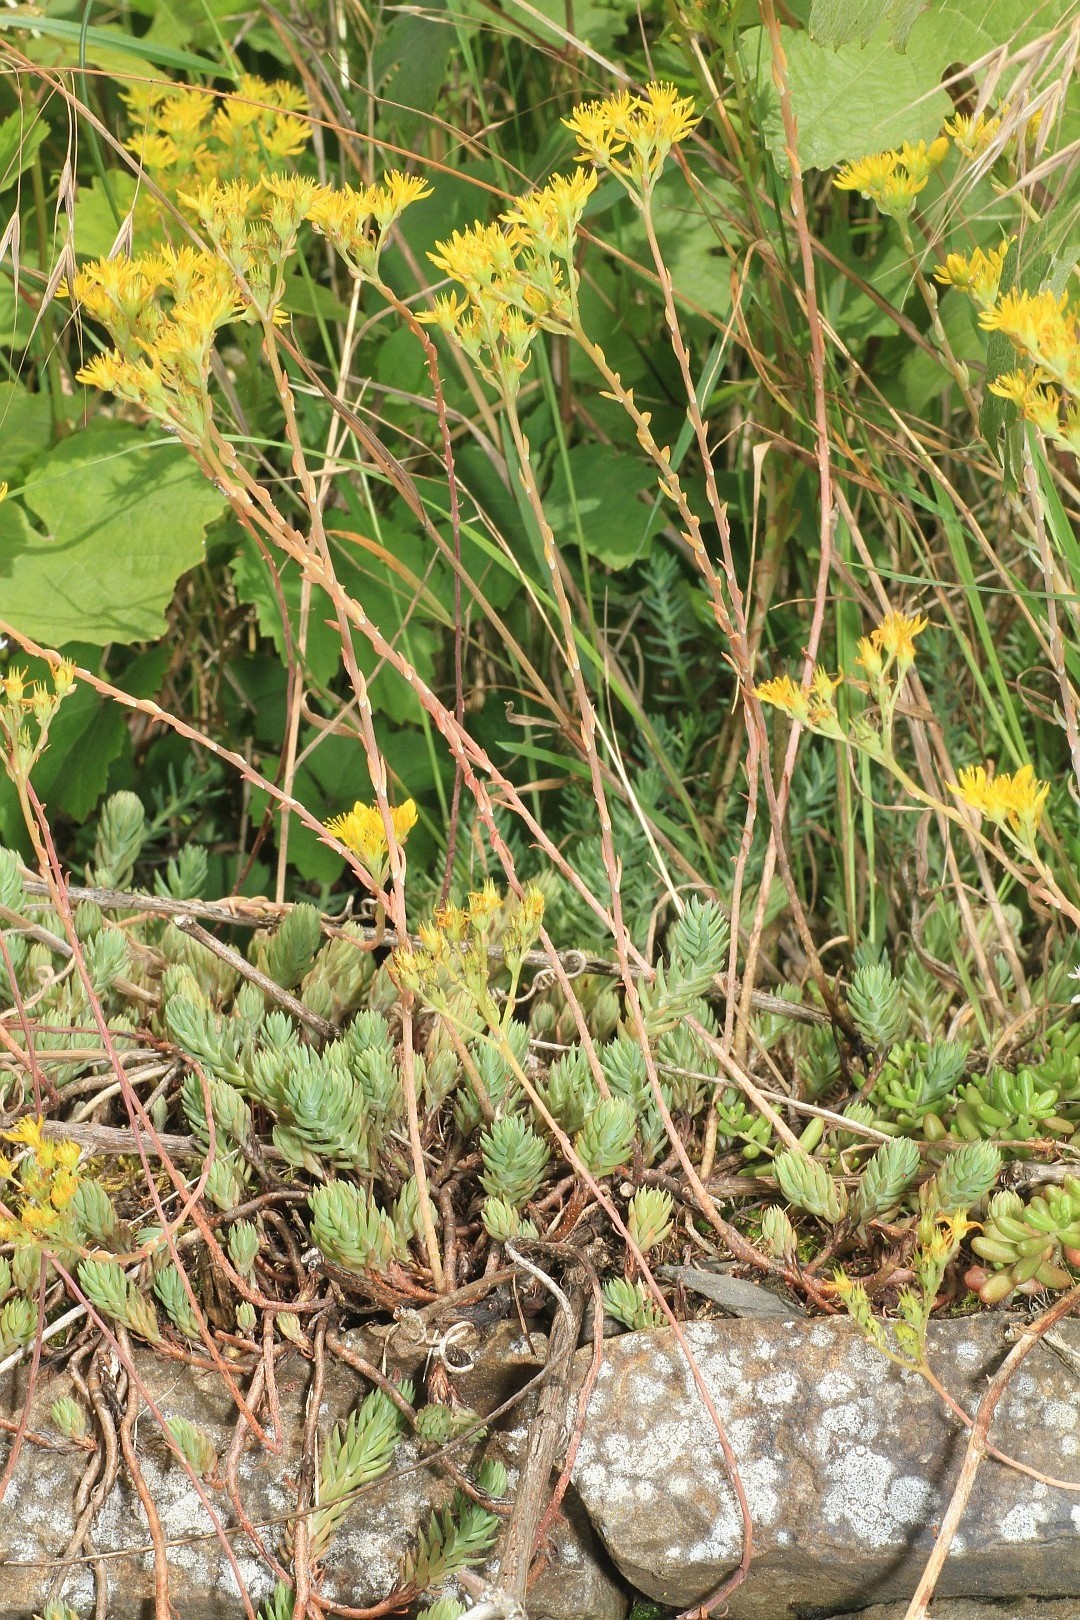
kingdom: Plantae
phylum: Tracheophyta
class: Magnoliopsida
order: Saxifragales
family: Crassulaceae
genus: Petrosedum
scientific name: Petrosedum rupestre
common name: Jenny's stonecrop
